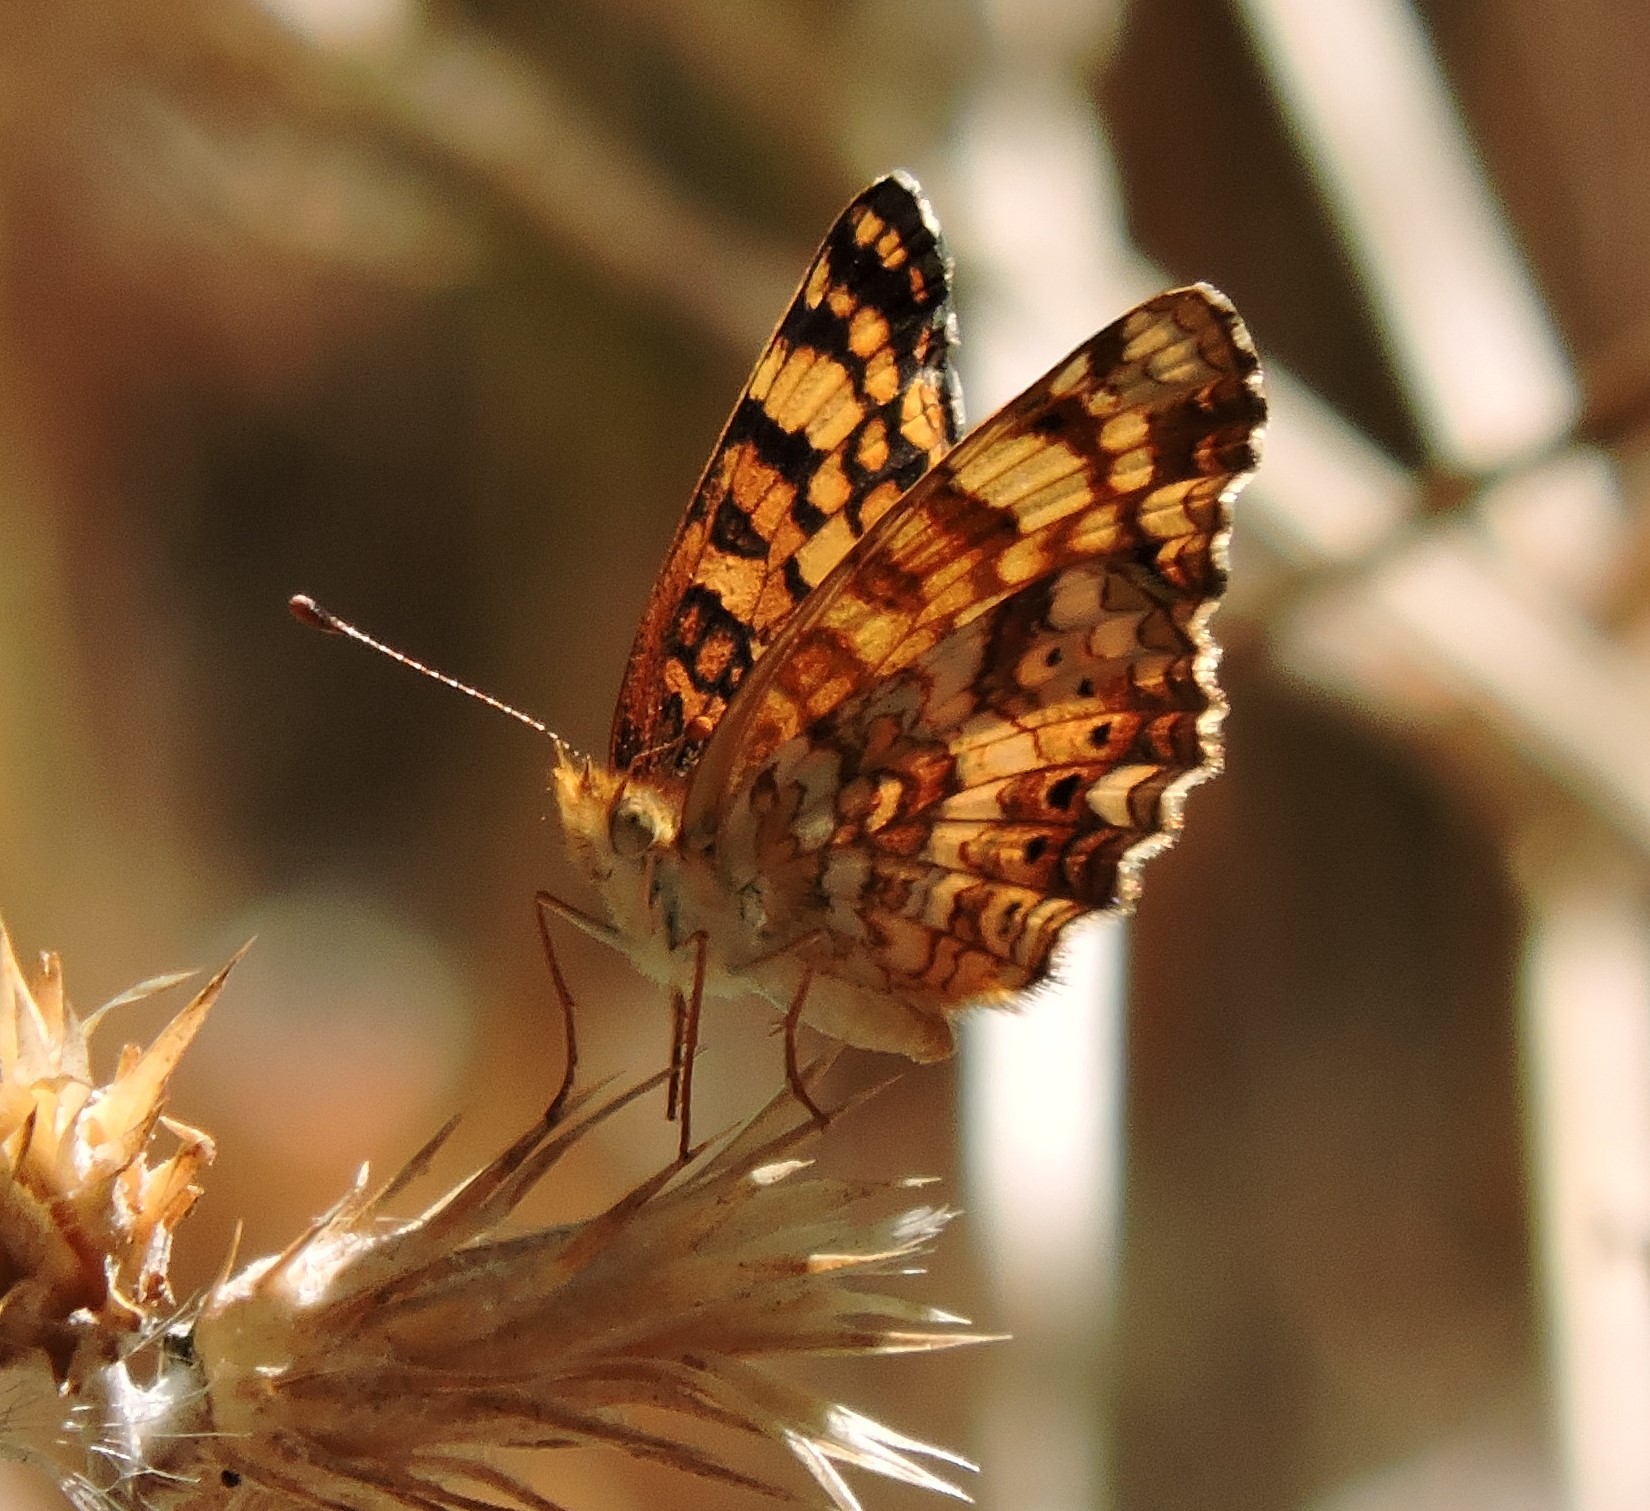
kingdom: Animalia
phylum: Arthropoda
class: Insecta
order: Lepidoptera
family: Nymphalidae
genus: Eresia
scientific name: Eresia aveyrona
